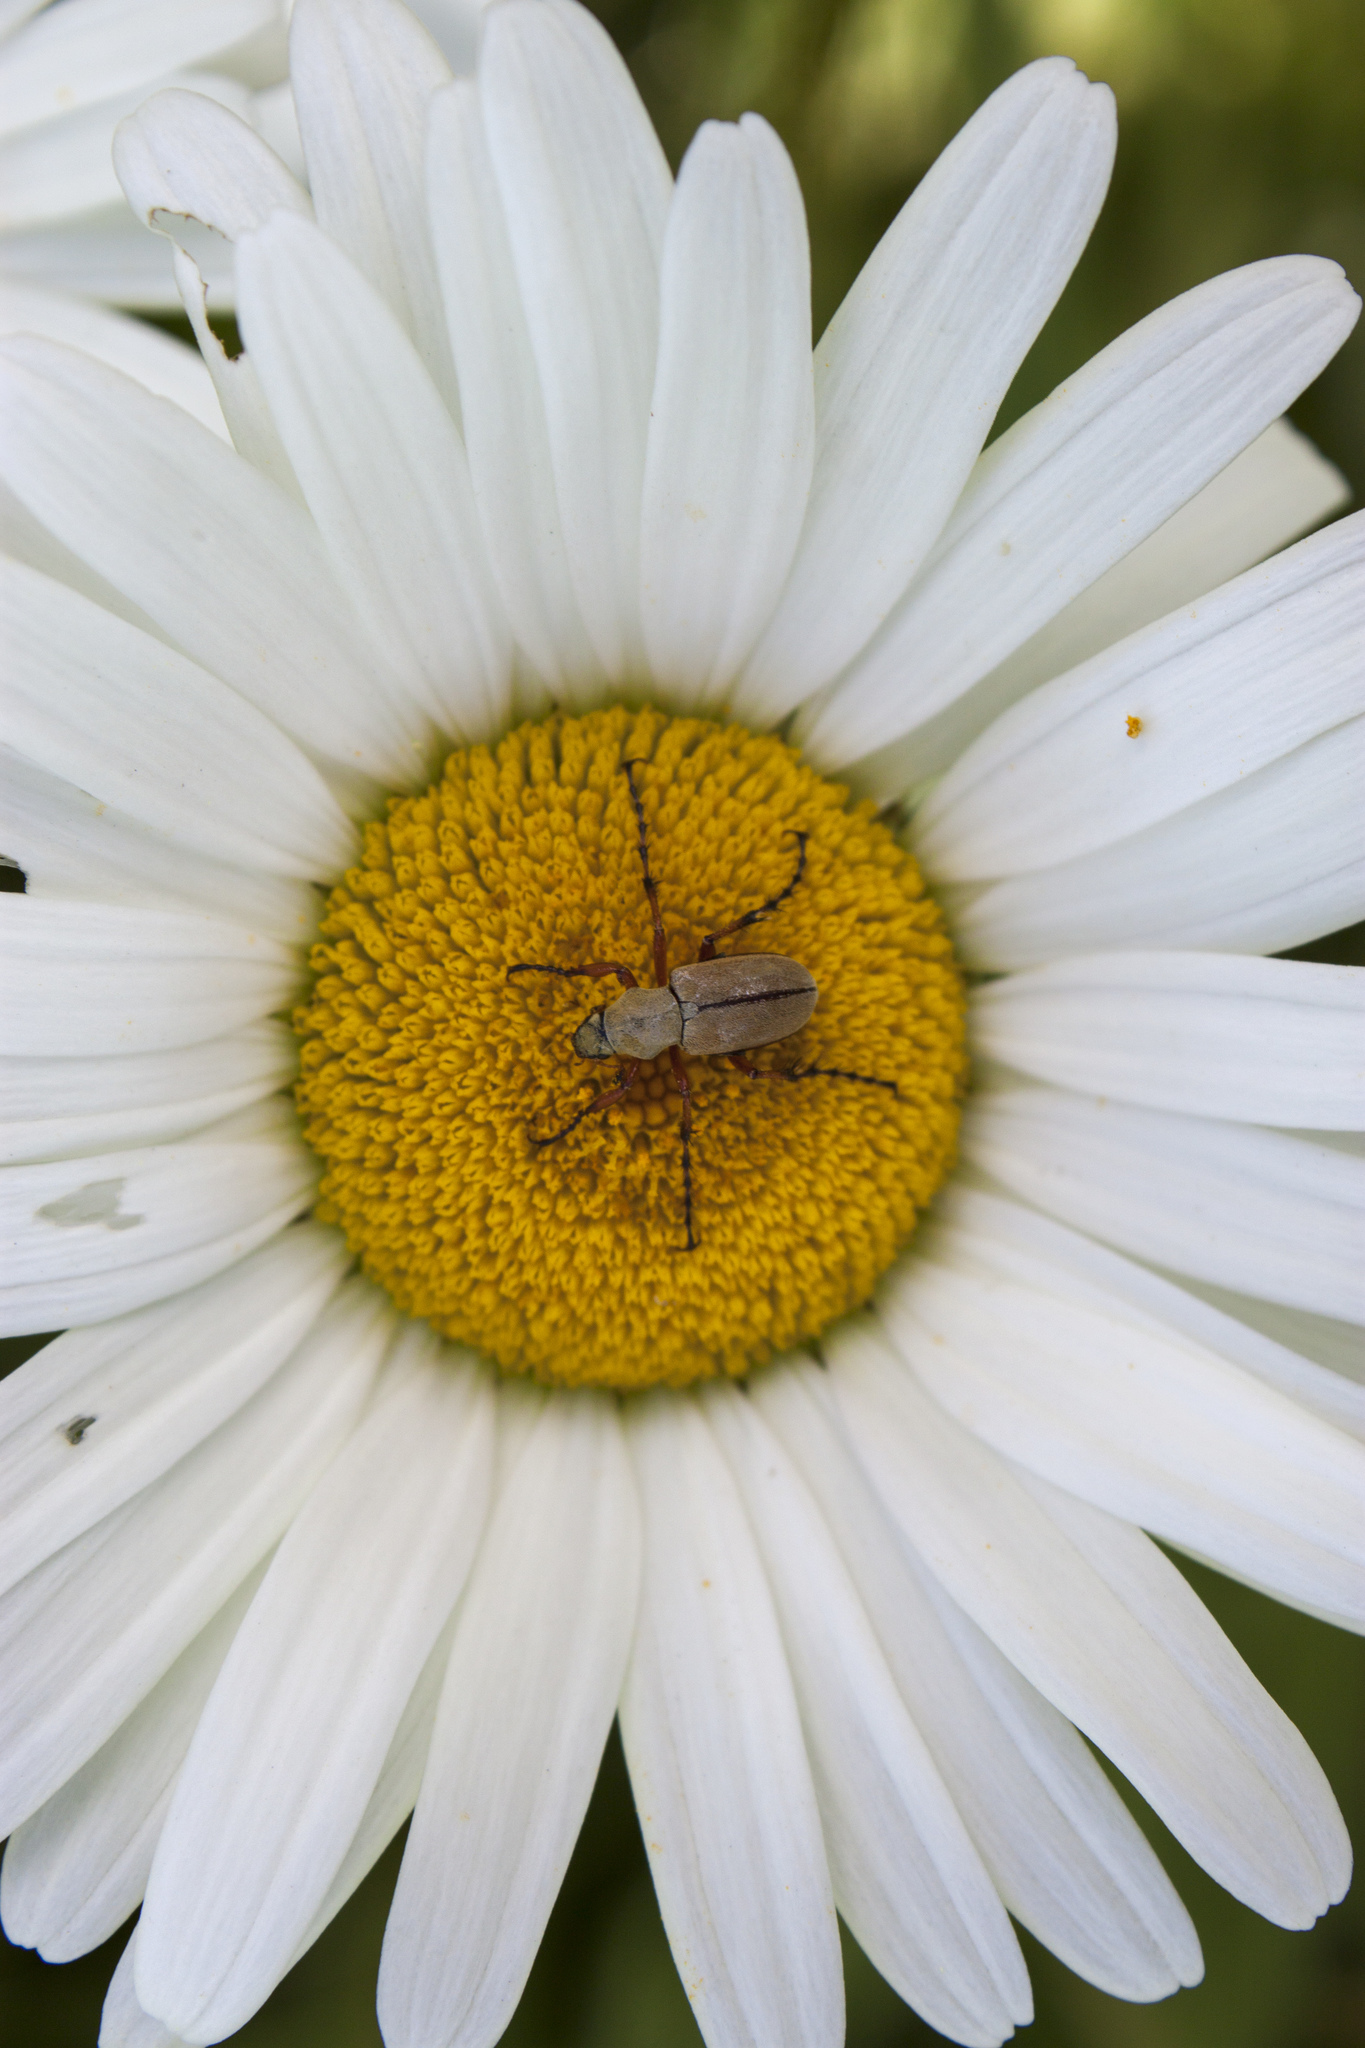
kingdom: Plantae
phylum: Tracheophyta
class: Magnoliopsida
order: Asterales
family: Asteraceae
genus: Leucanthemum
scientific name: Leucanthemum vulgare
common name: Oxeye daisy
